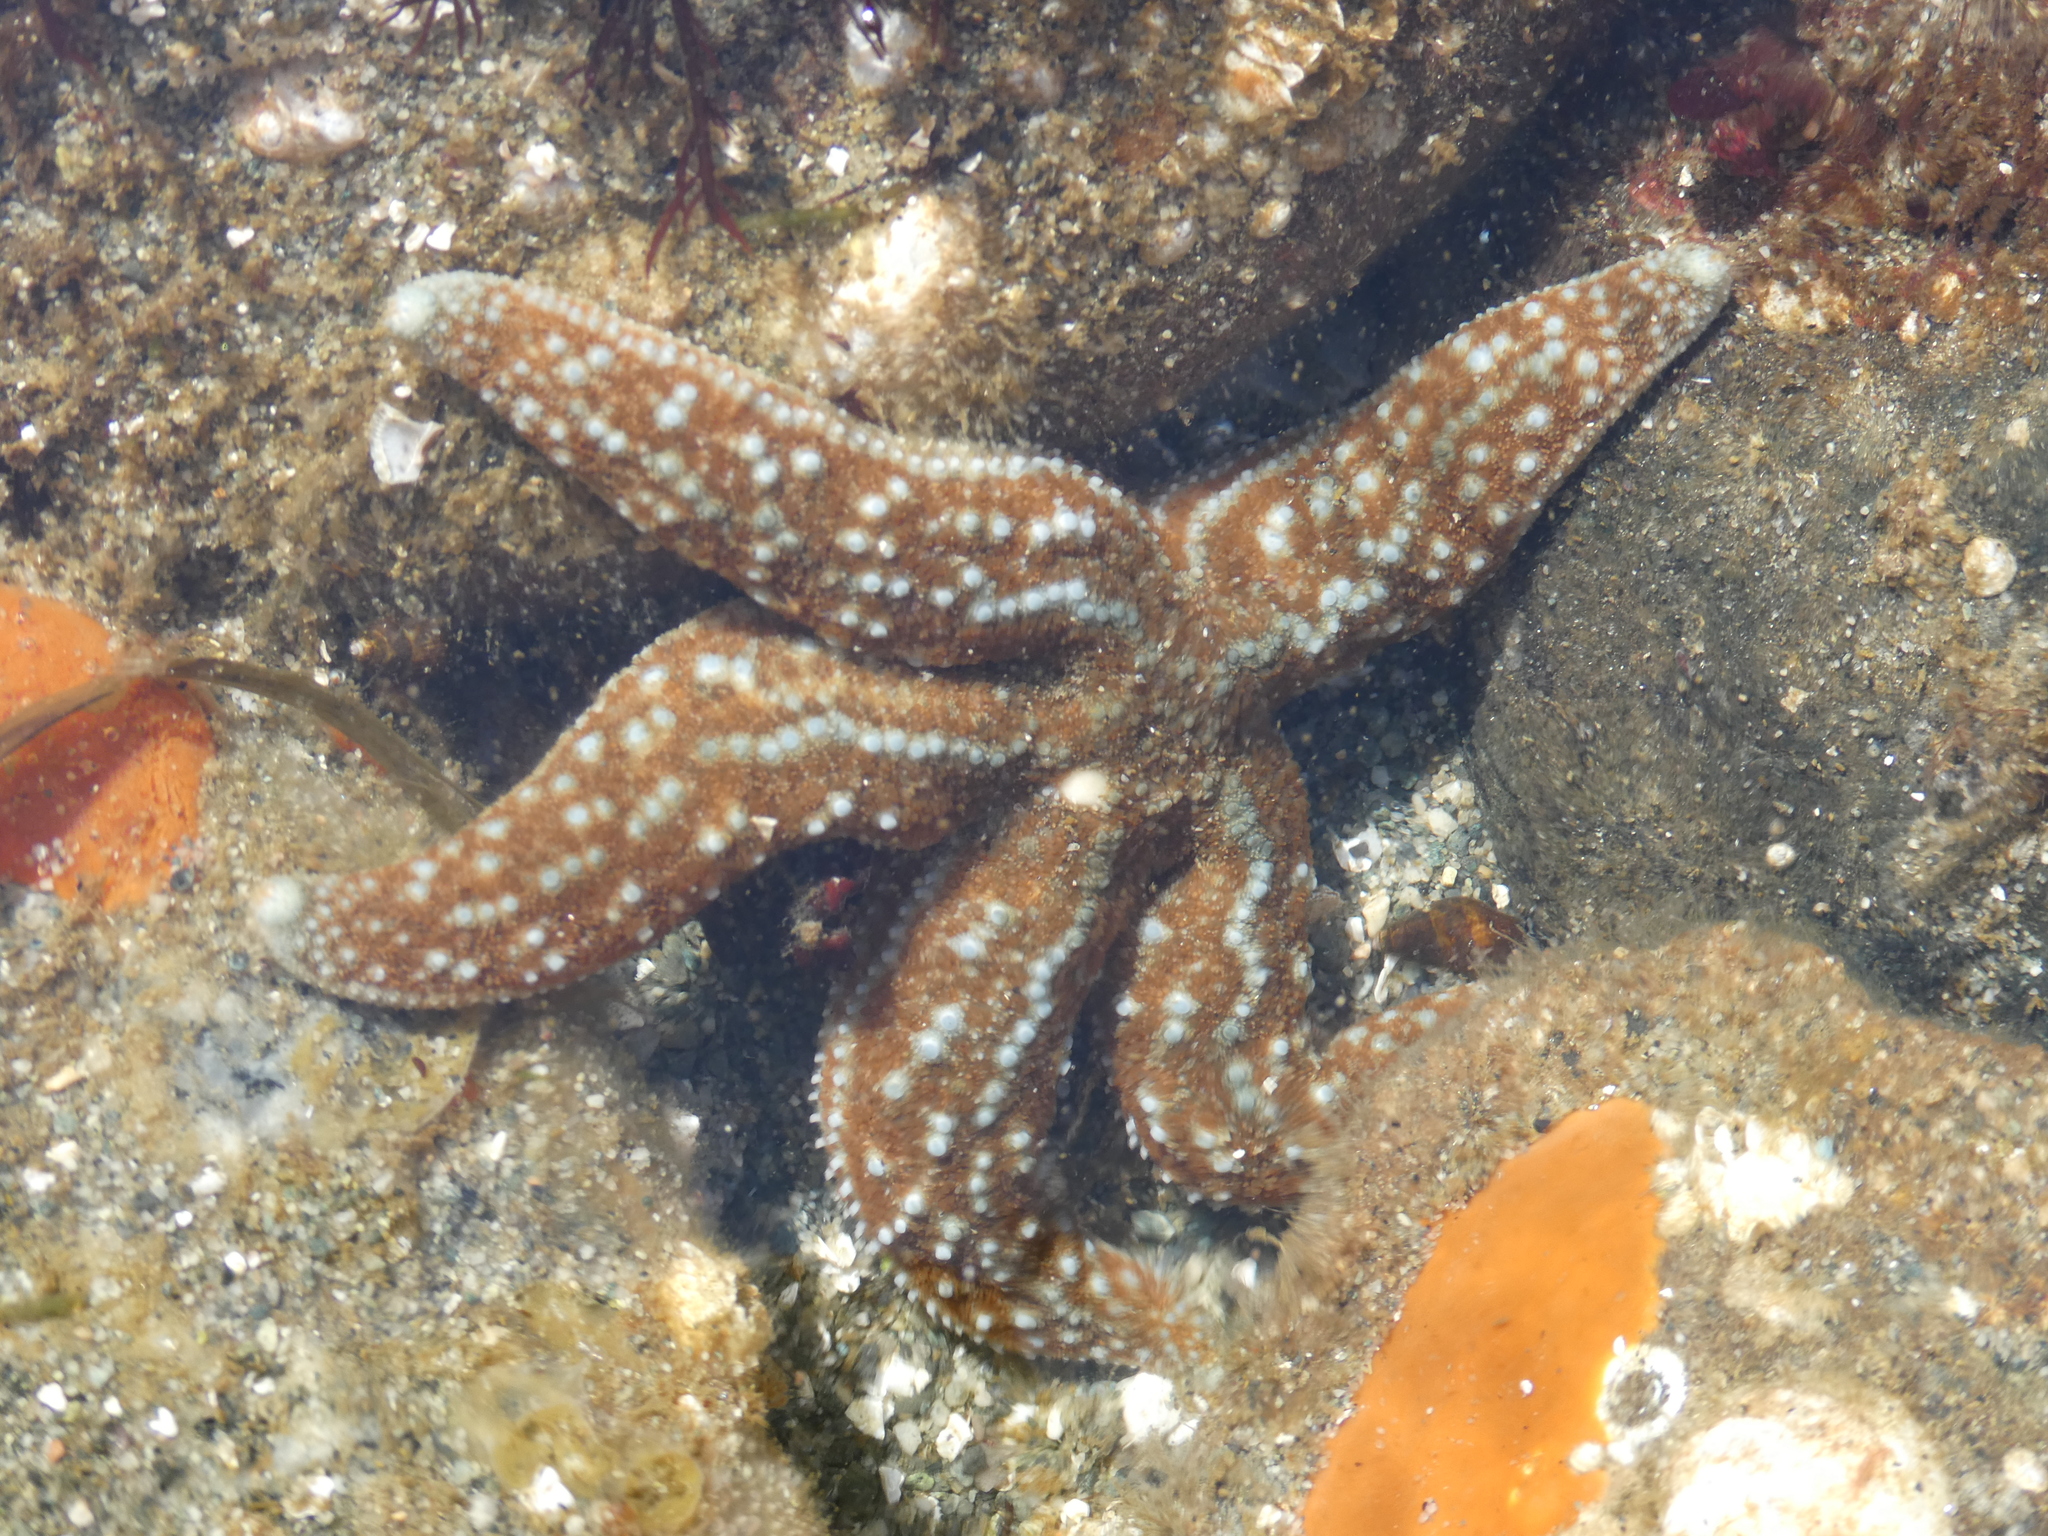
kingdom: Animalia
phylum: Echinodermata
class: Asteroidea
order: Forcipulatida
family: Asteriidae
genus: Evasterias
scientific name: Evasterias troschelii
